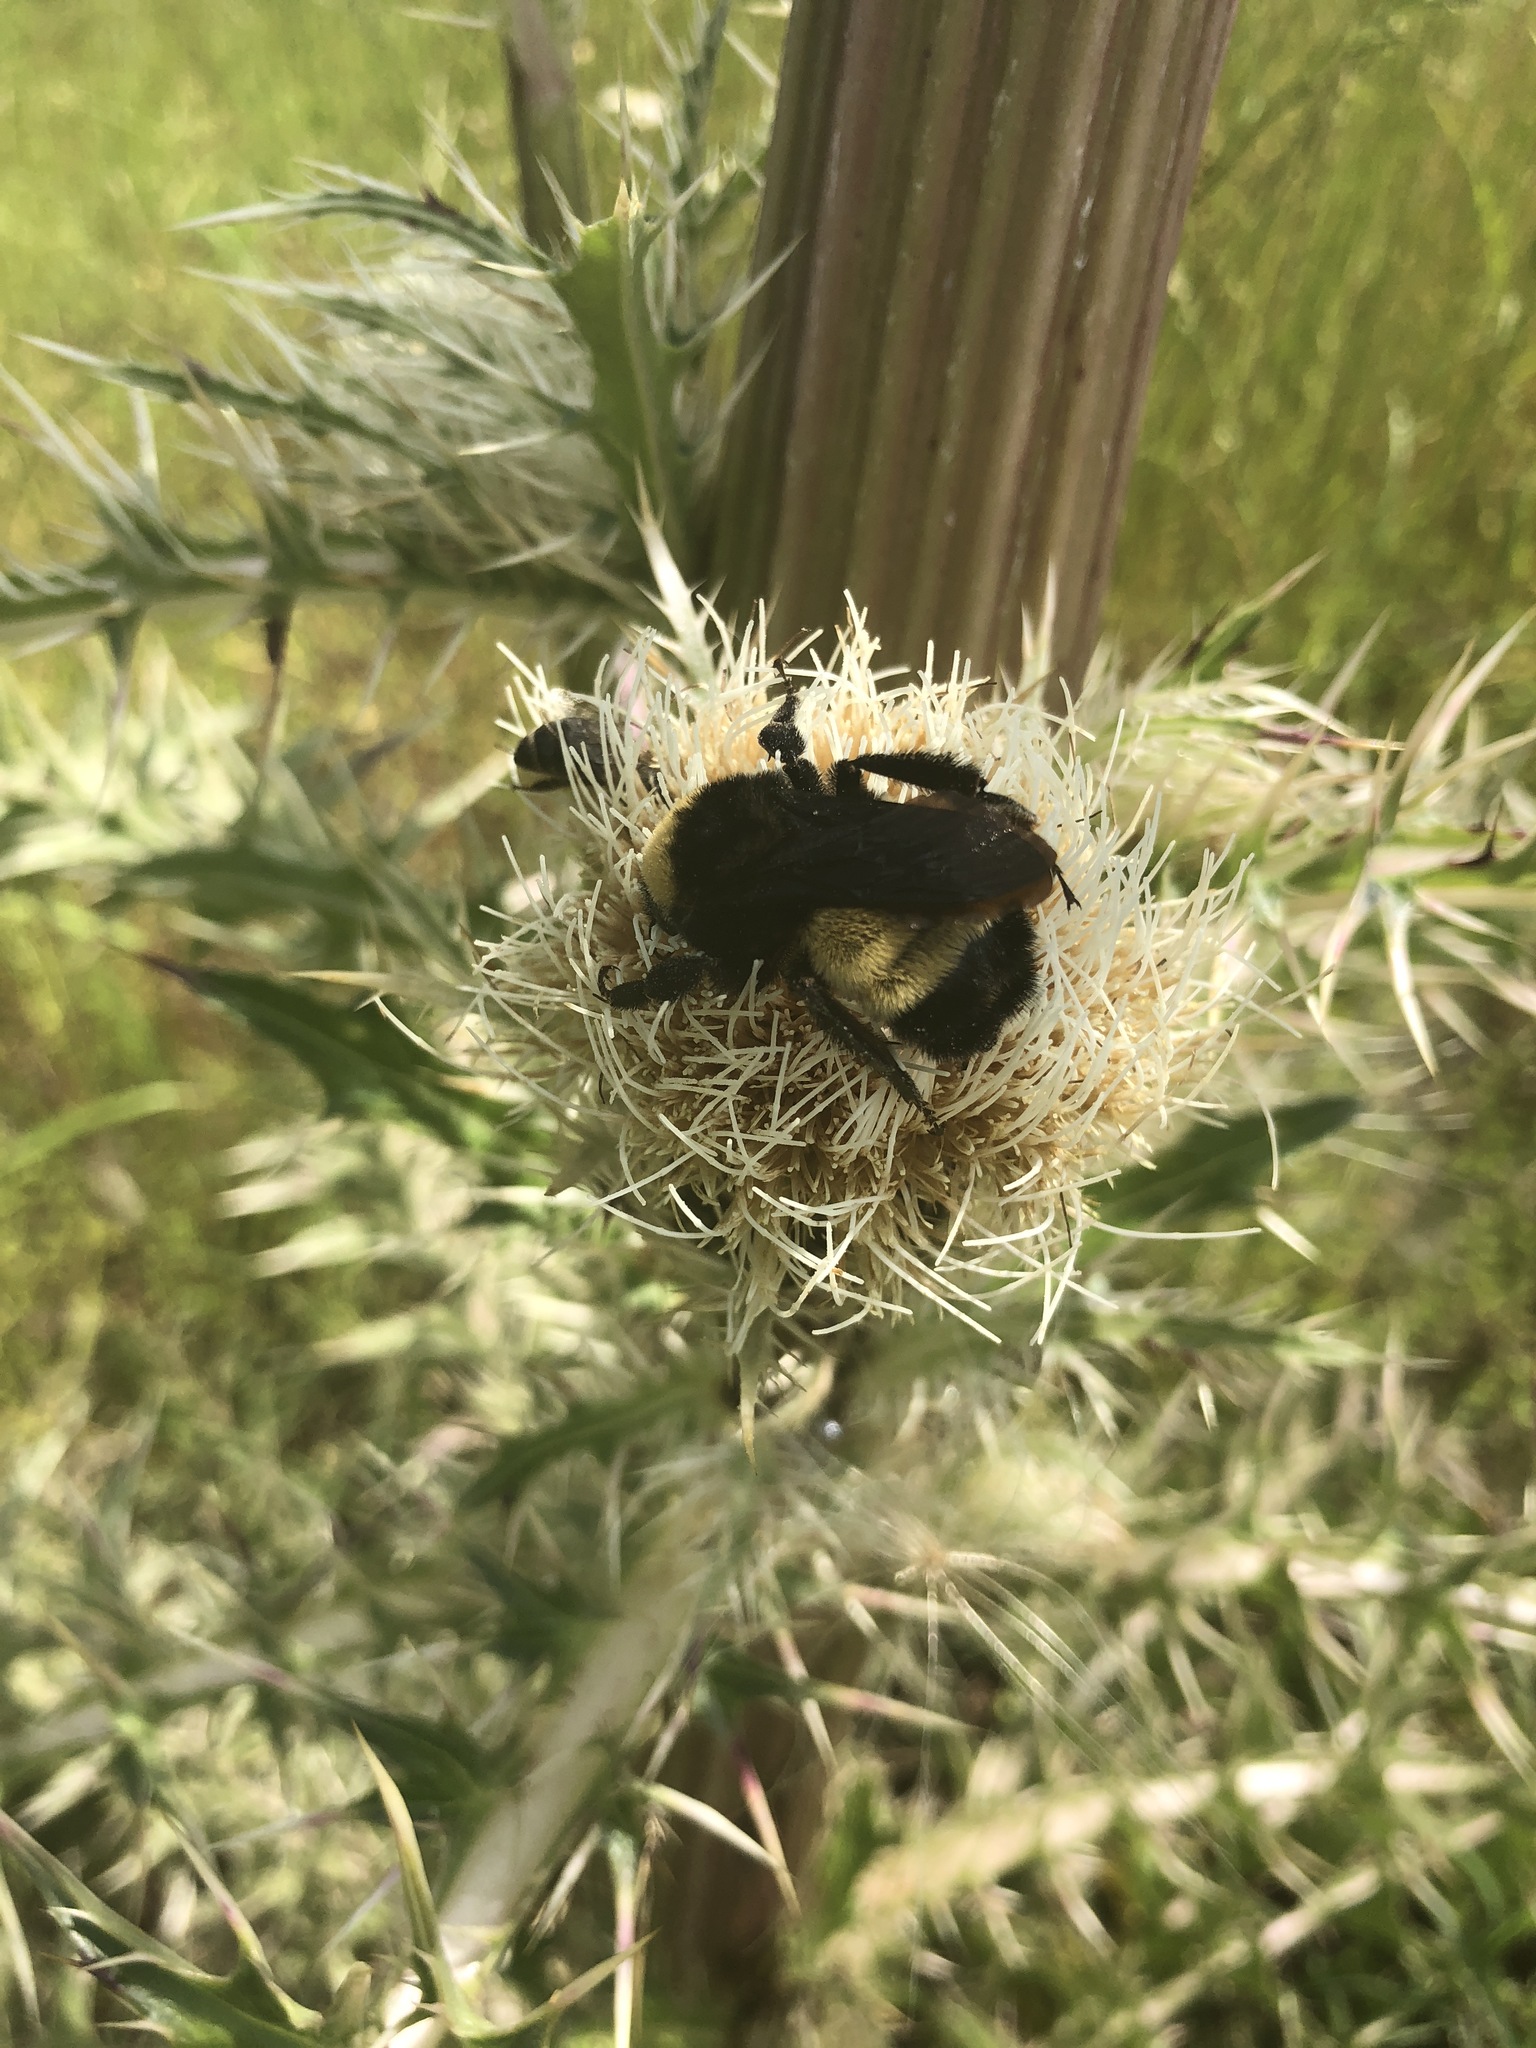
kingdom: Animalia
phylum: Arthropoda
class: Insecta
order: Hymenoptera
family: Apidae
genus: Bombus
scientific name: Bombus pensylvanicus
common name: Bumble bee
